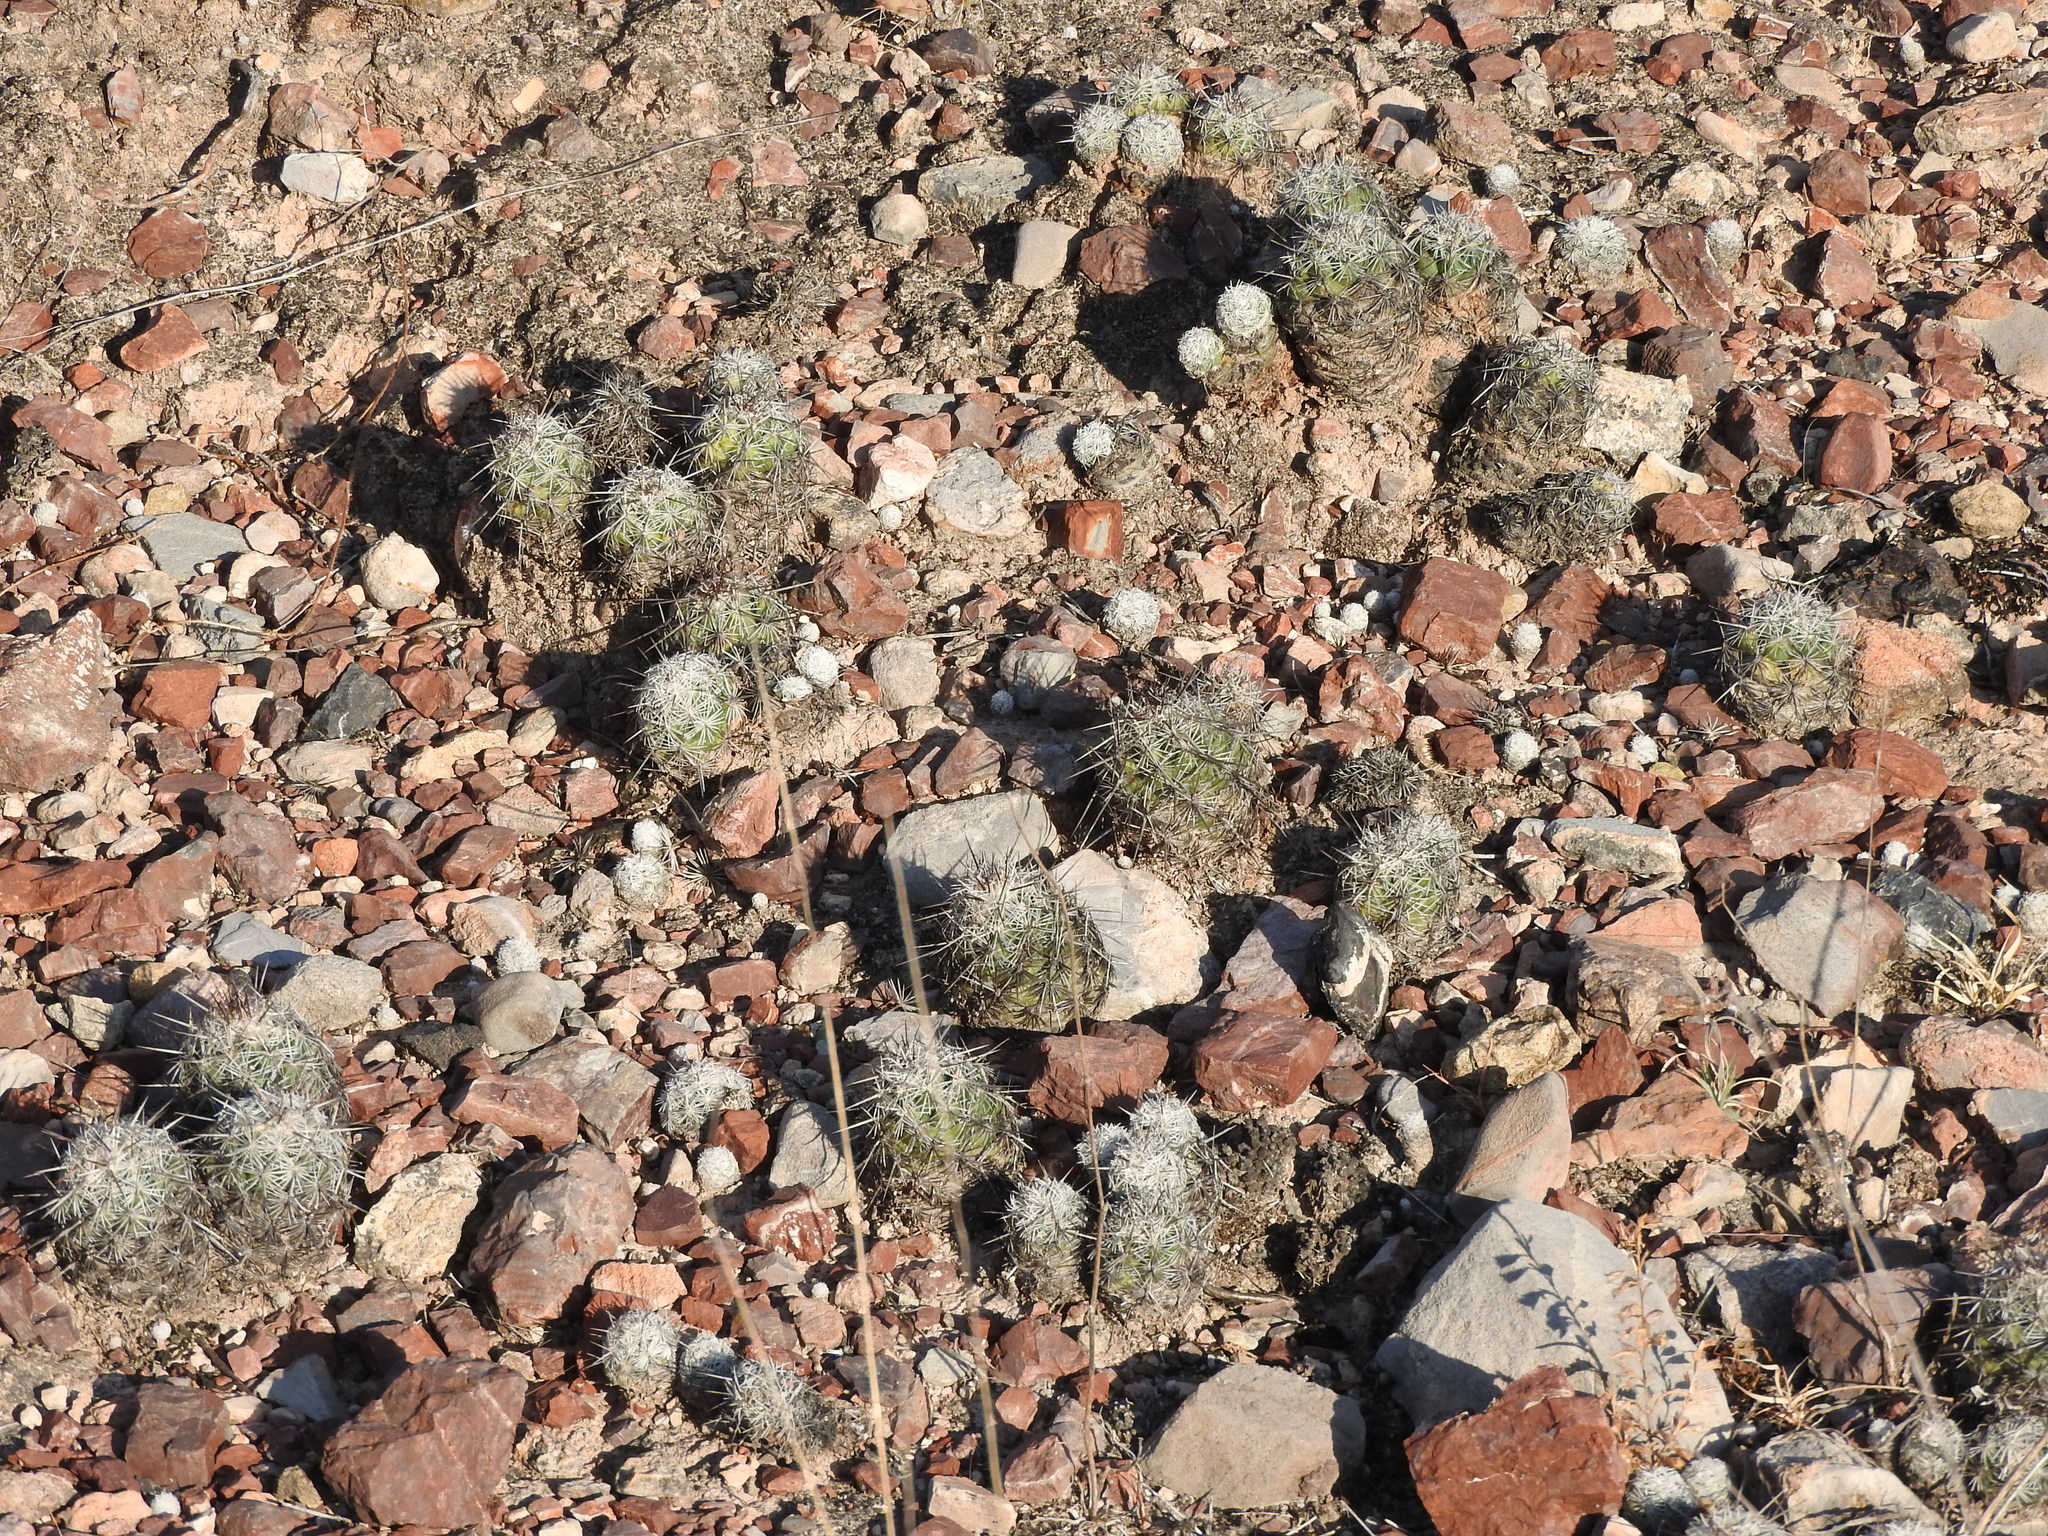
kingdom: Plantae
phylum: Tracheophyta
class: Magnoliopsida
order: Caryophyllales
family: Cactaceae
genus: Cochemiea
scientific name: Cochemiea conoidea
